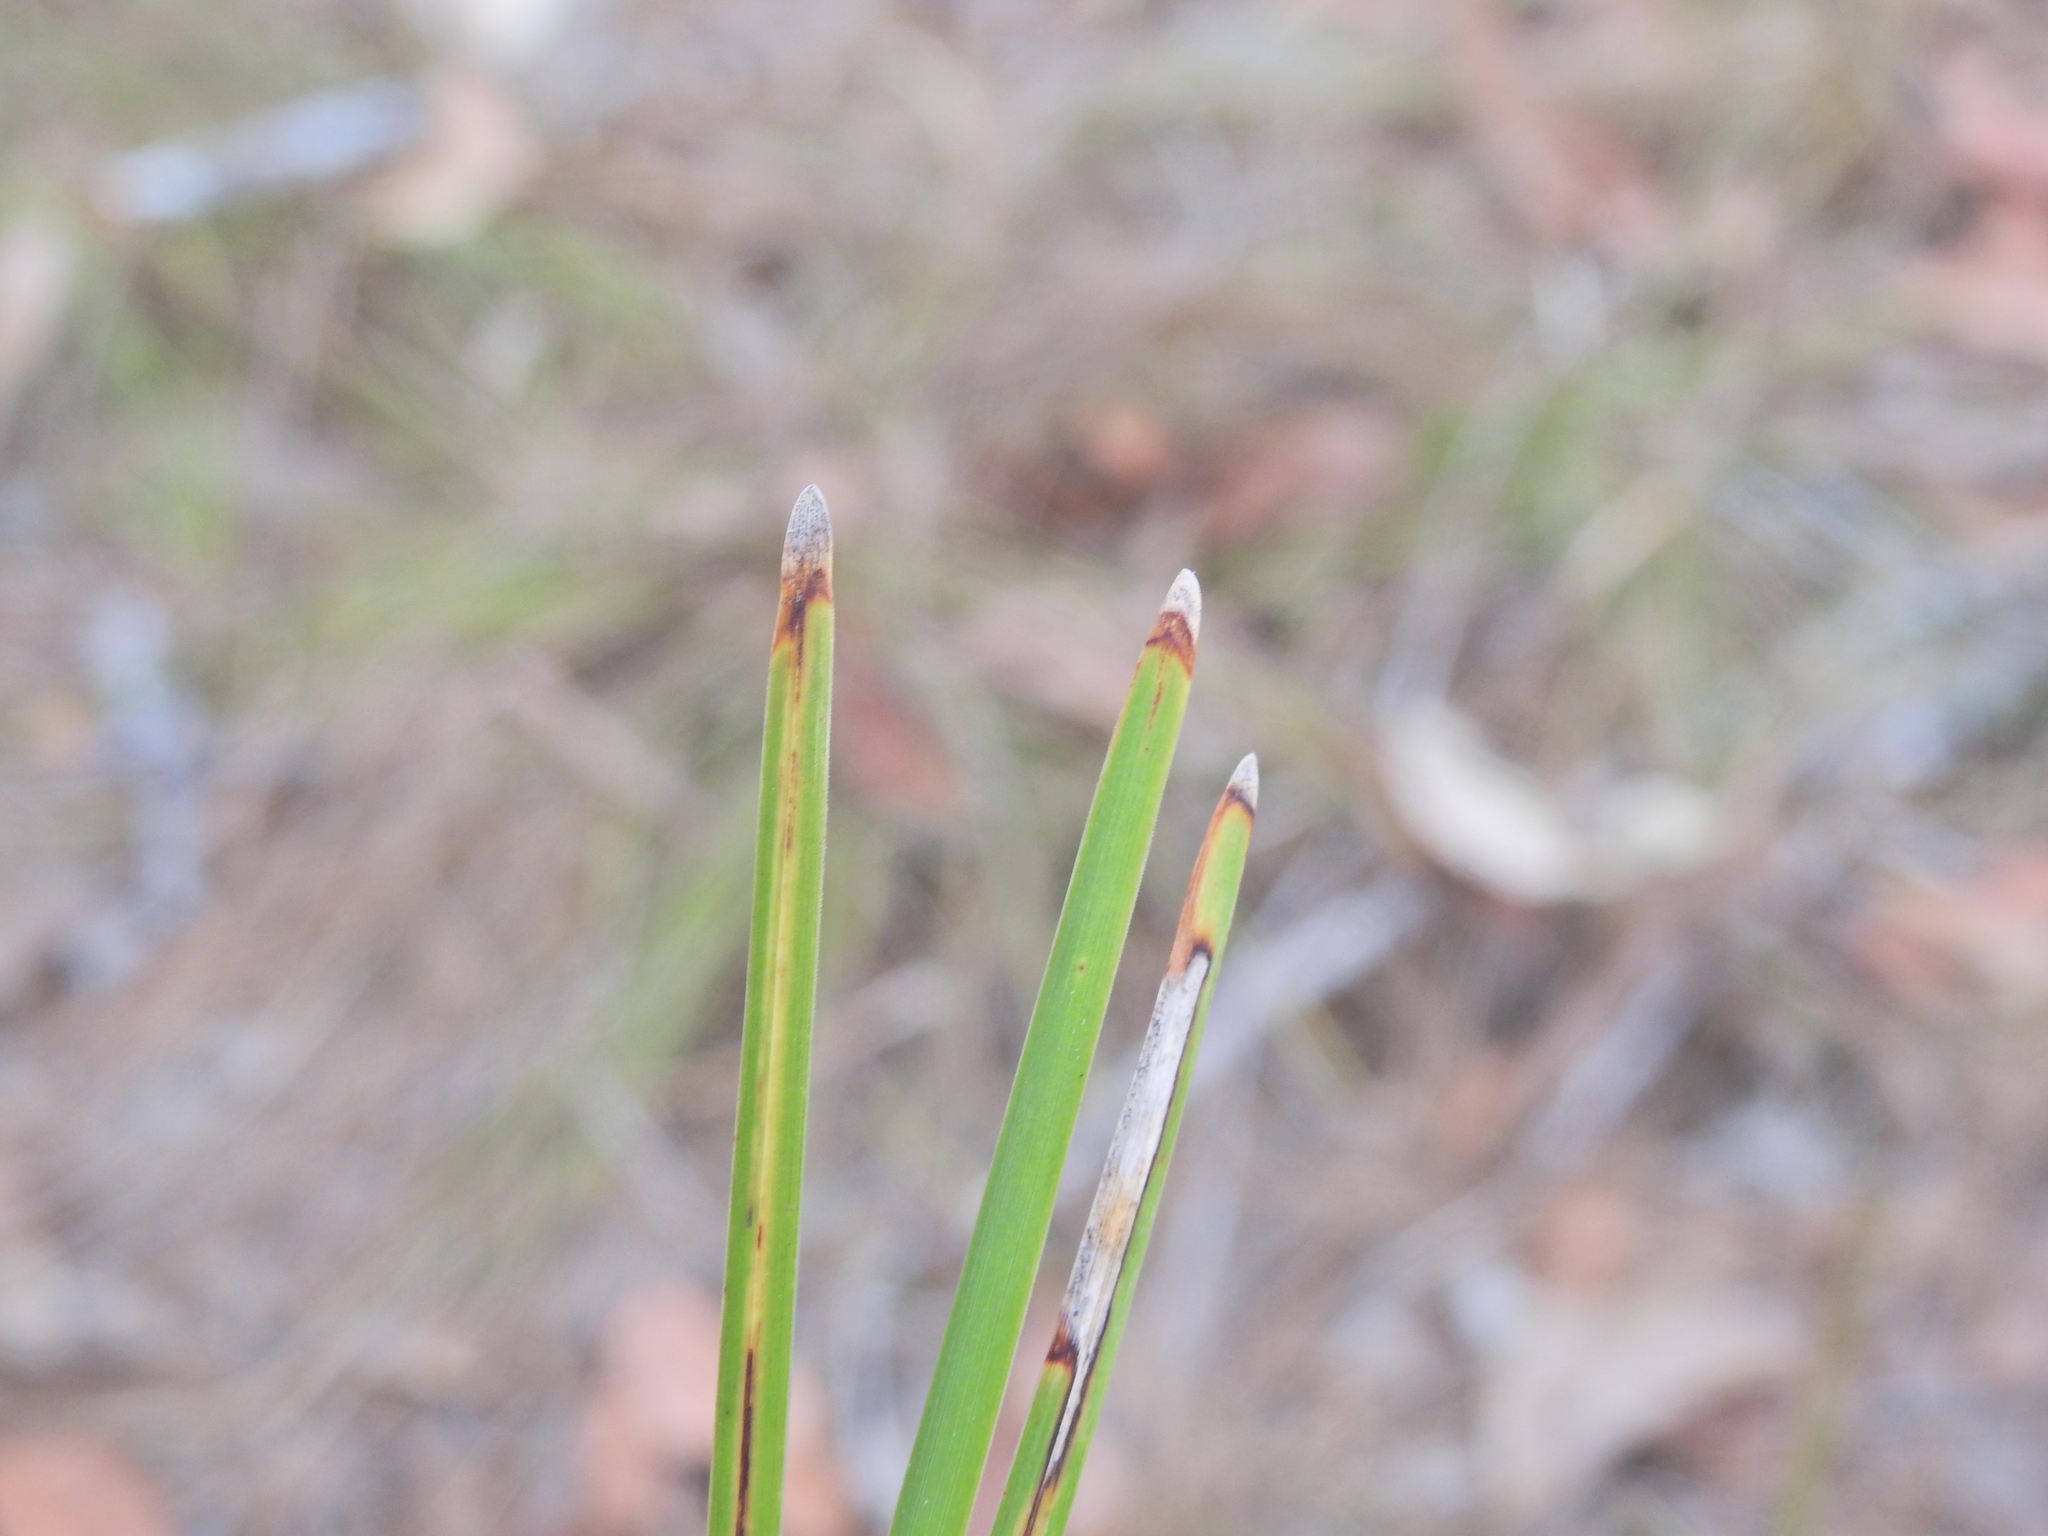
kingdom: Plantae
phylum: Tracheophyta
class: Liliopsida
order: Asparagales
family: Asparagaceae
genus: Lomandra
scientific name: Lomandra multiflora
